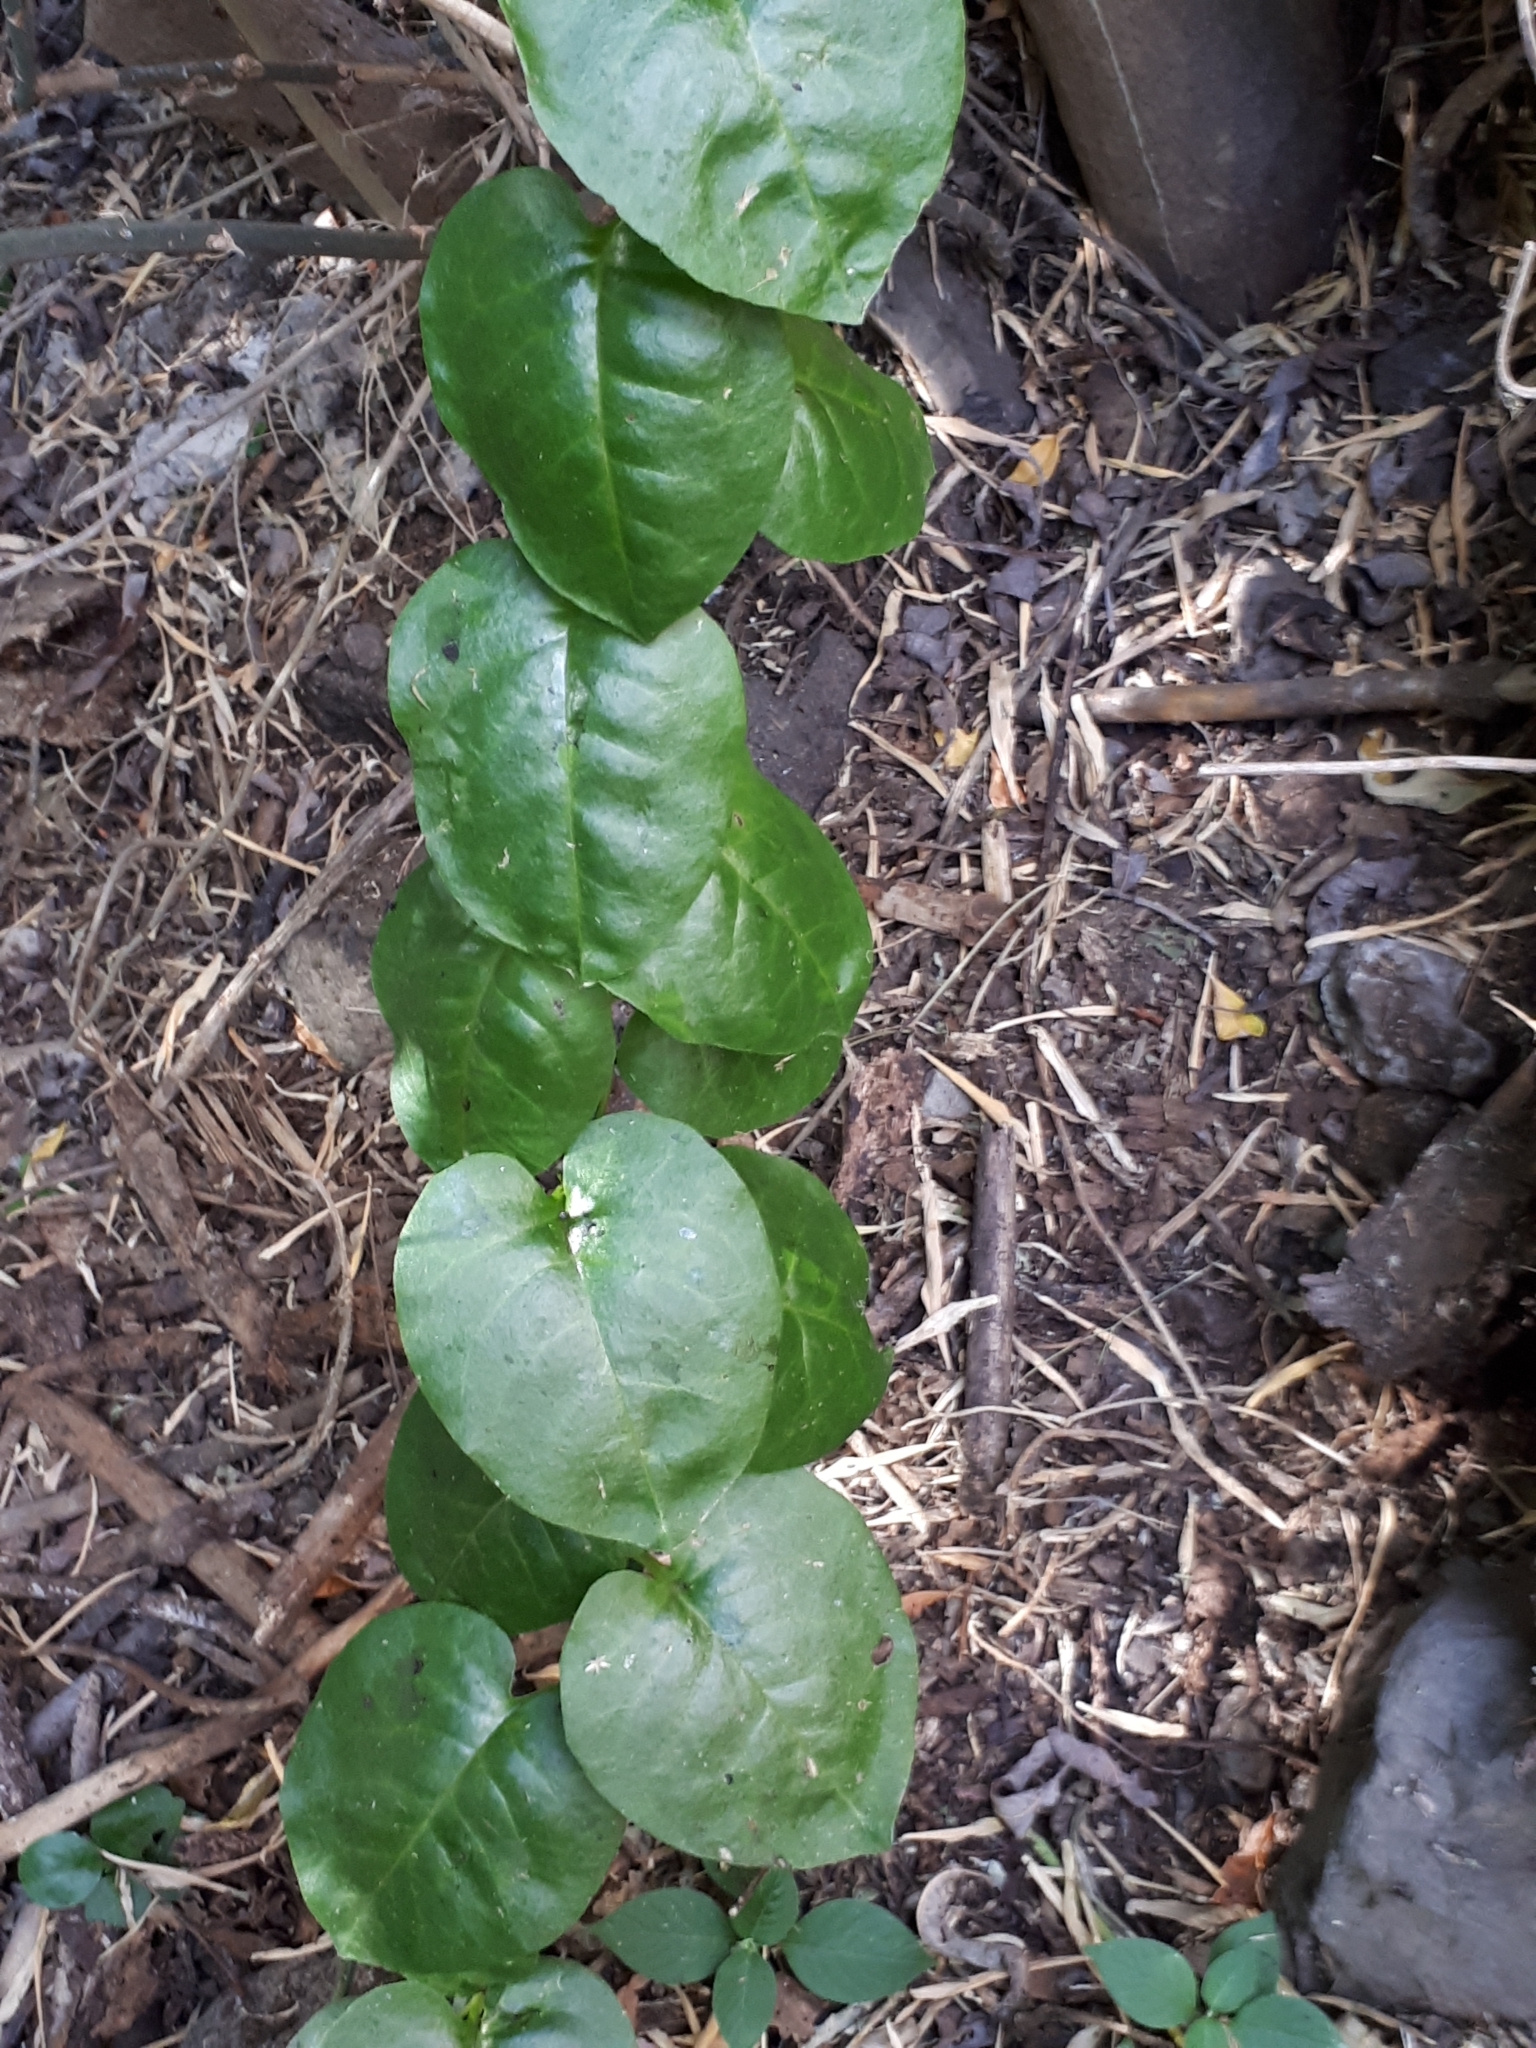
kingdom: Plantae
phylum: Tracheophyta
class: Liliopsida
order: Dioscoreales
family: Dioscoreaceae
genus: Dioscorea
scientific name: Dioscorea communis
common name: Black-bindweed
